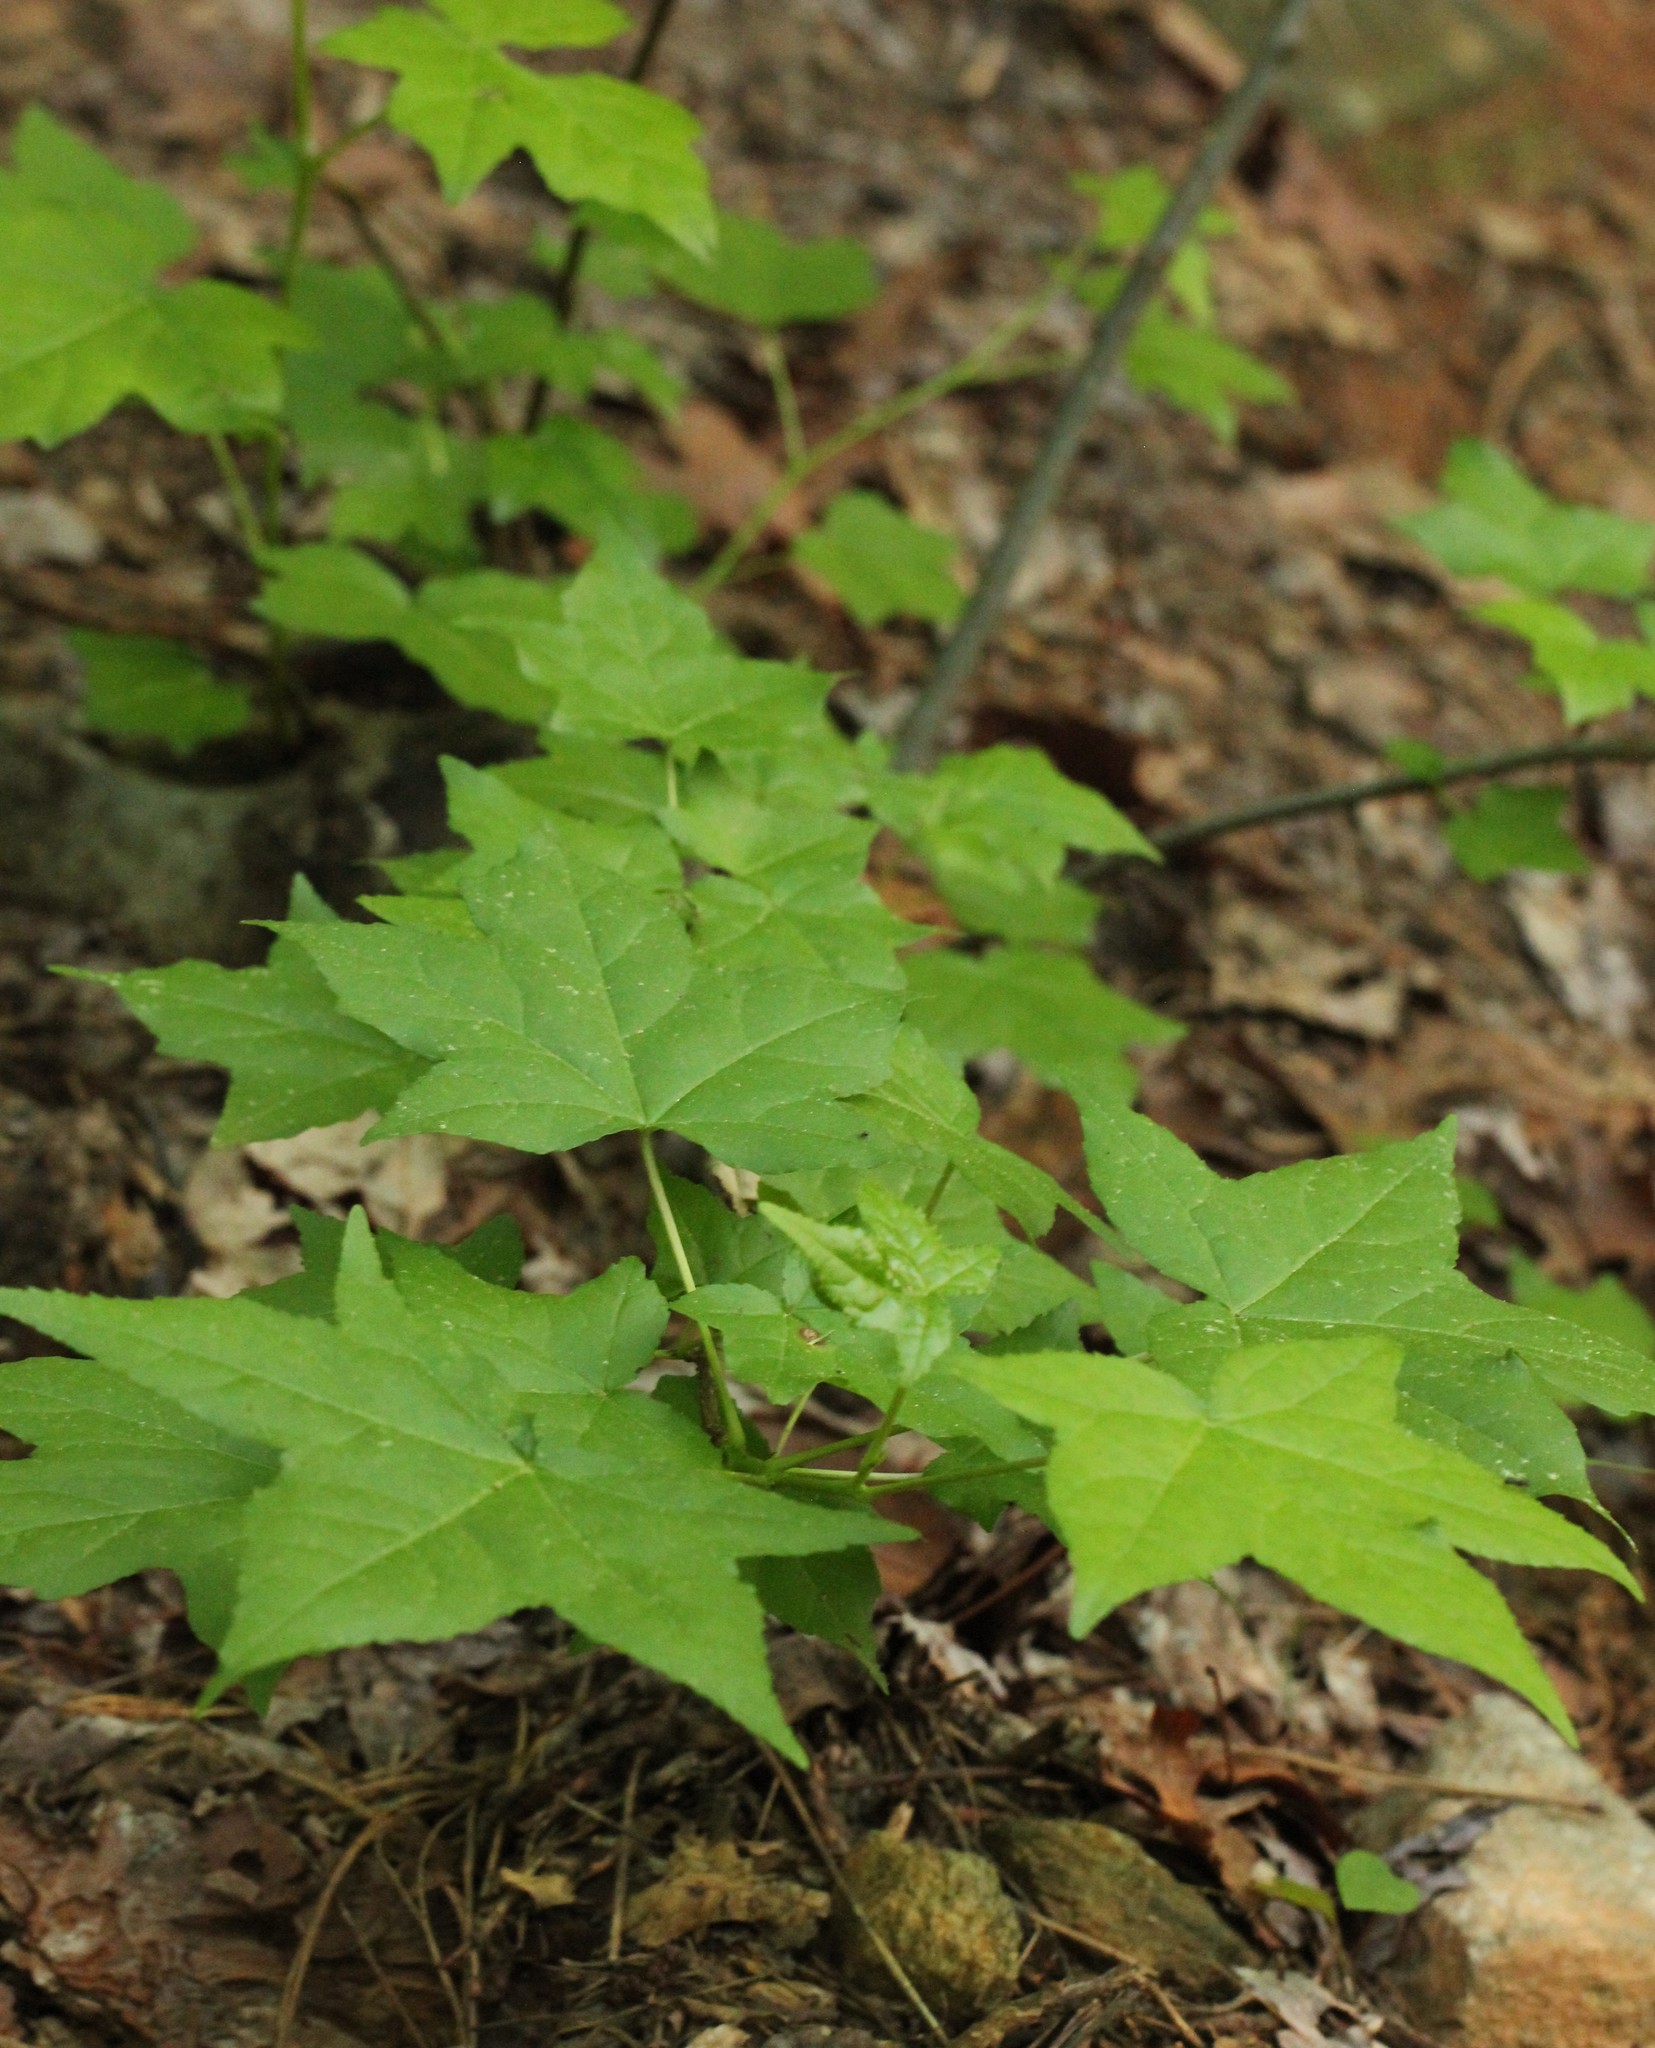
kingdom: Plantae
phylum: Tracheophyta
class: Magnoliopsida
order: Saxifragales
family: Altingiaceae
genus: Liquidambar
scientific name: Liquidambar styraciflua
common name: Sweet gum
